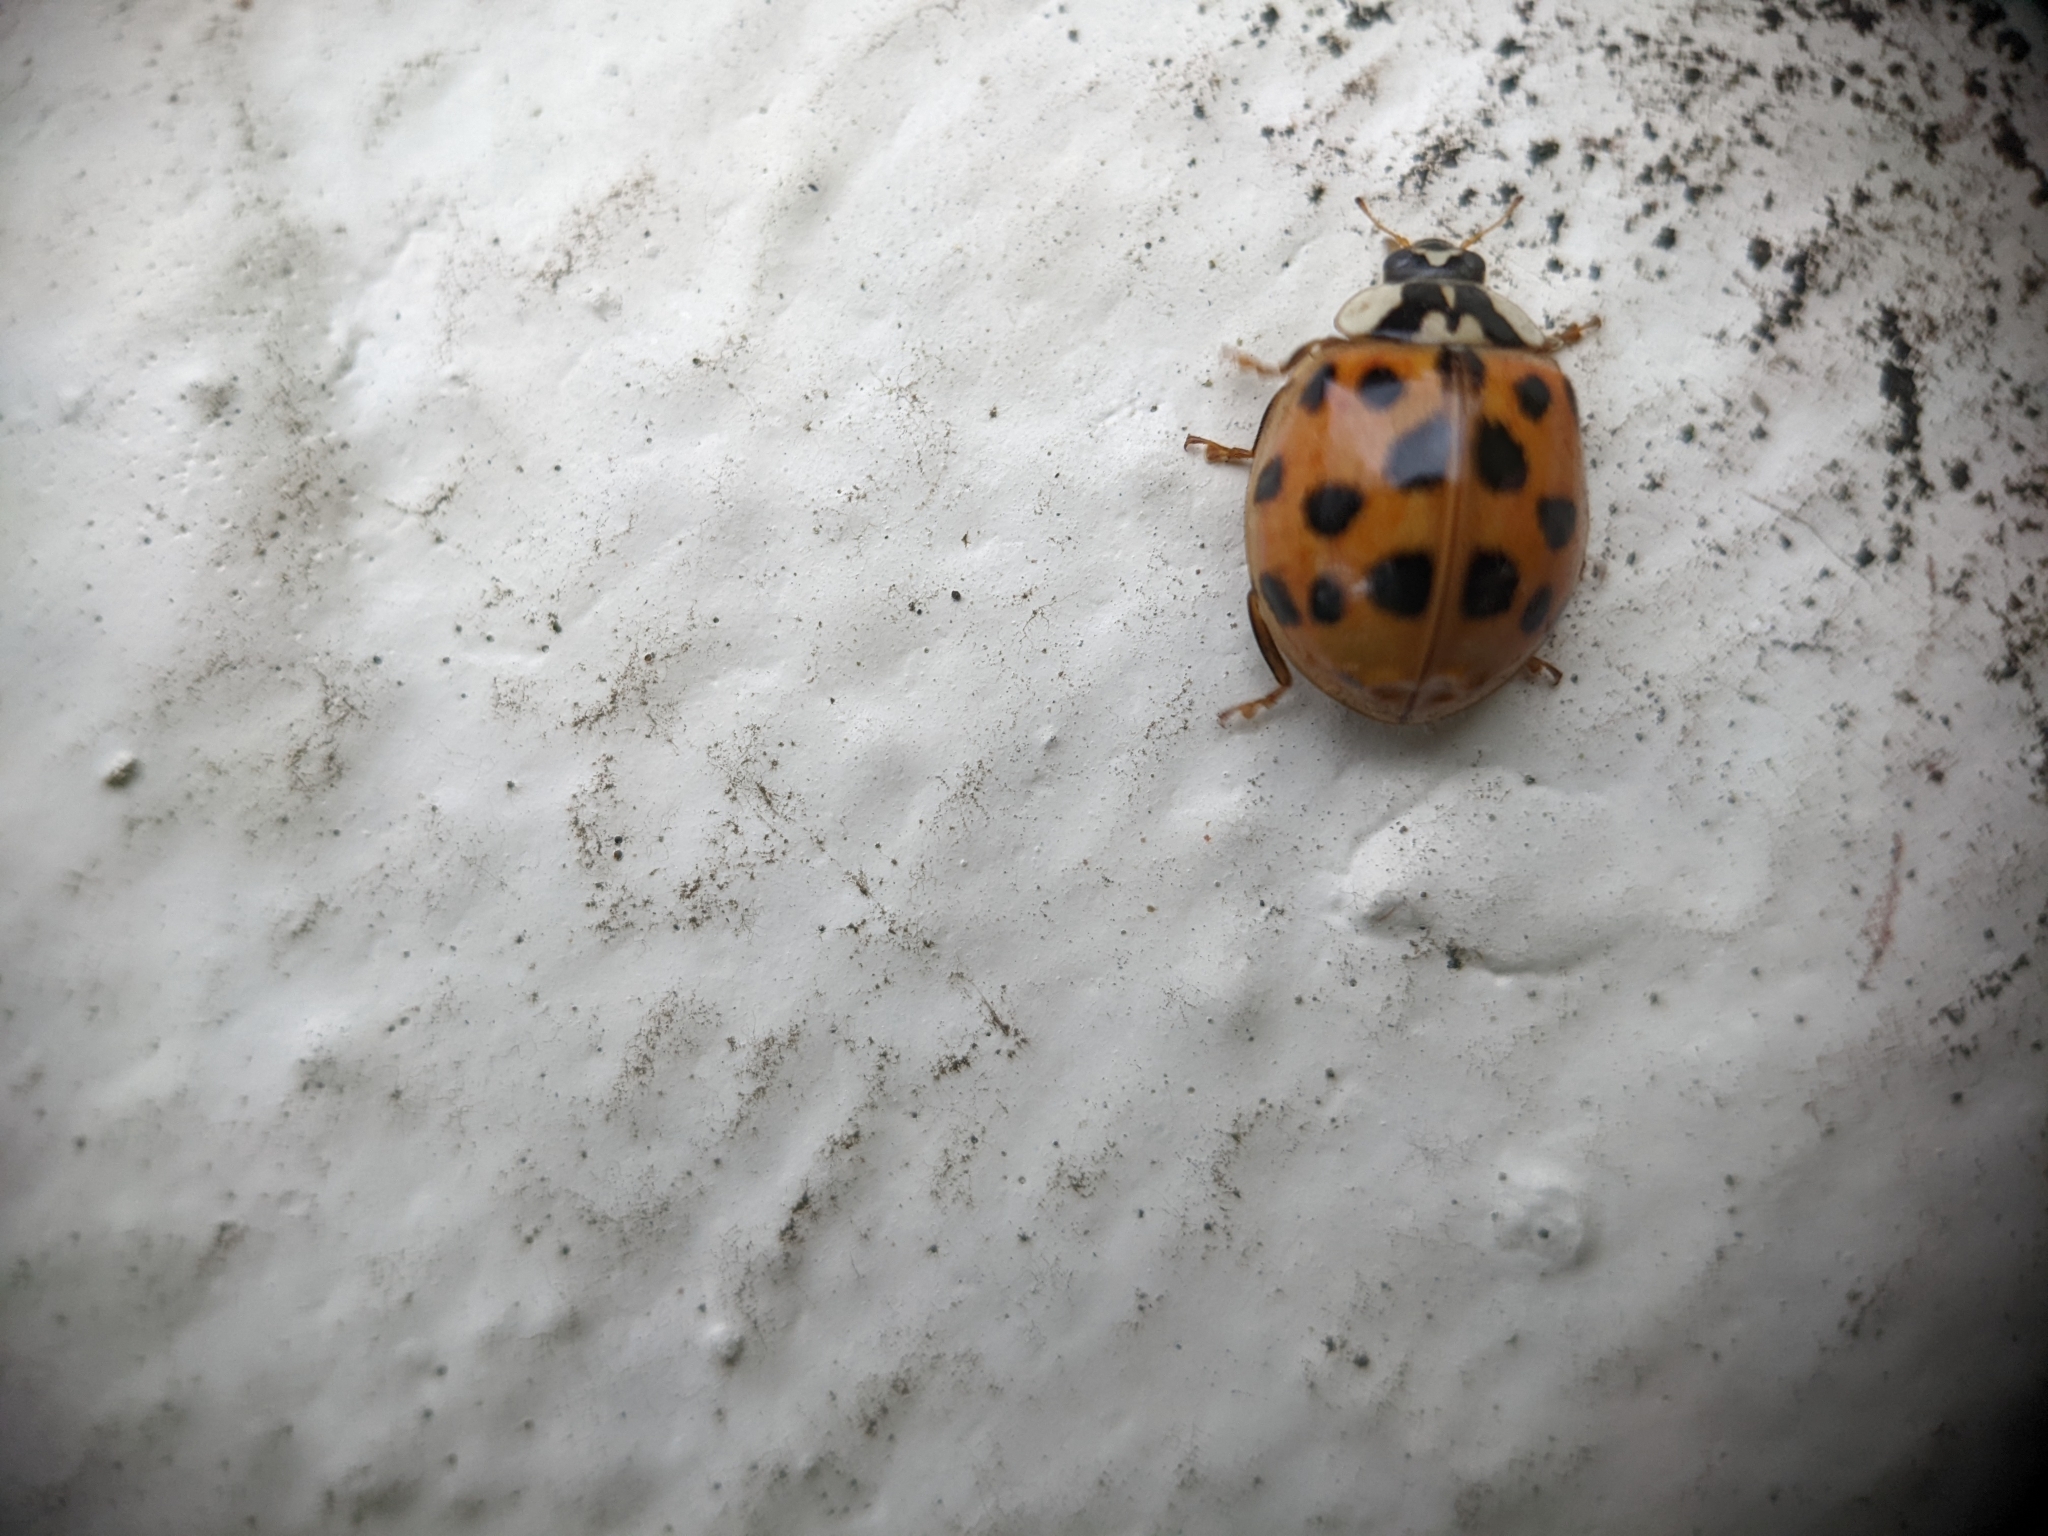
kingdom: Animalia
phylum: Arthropoda
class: Insecta
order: Coleoptera
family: Coccinellidae
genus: Harmonia
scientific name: Harmonia axyridis
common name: Harlequin ladybird
